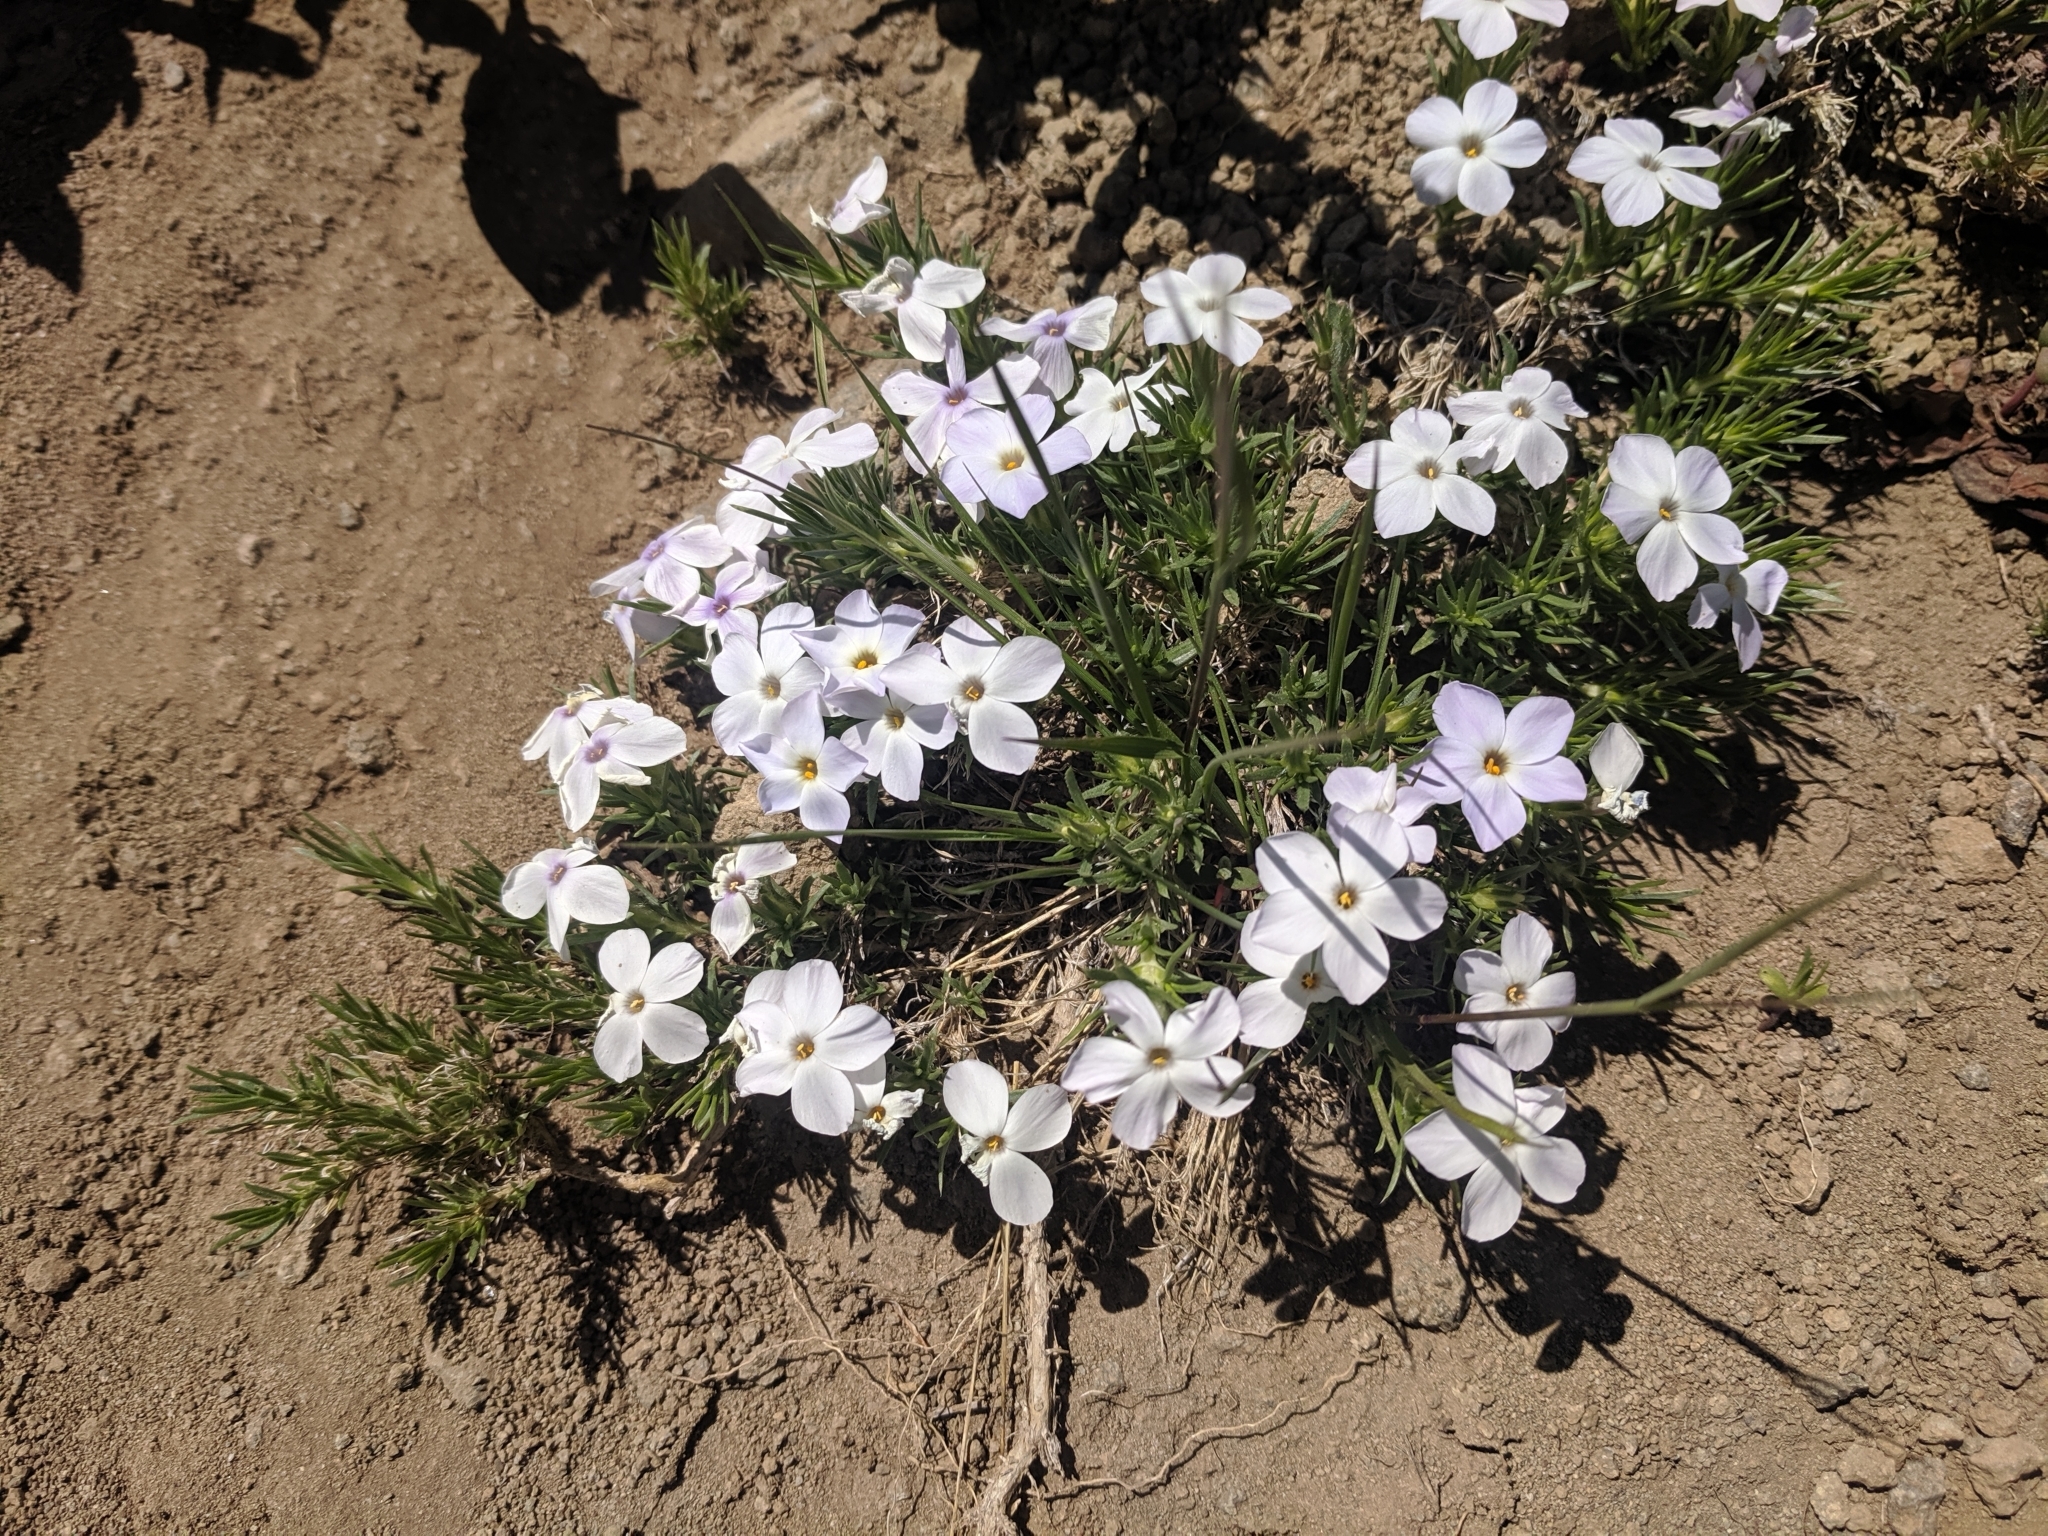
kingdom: Plantae
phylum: Tracheophyta
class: Magnoliopsida
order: Ericales
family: Polemoniaceae
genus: Phlox
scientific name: Phlox diffusa
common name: Mat phlox
